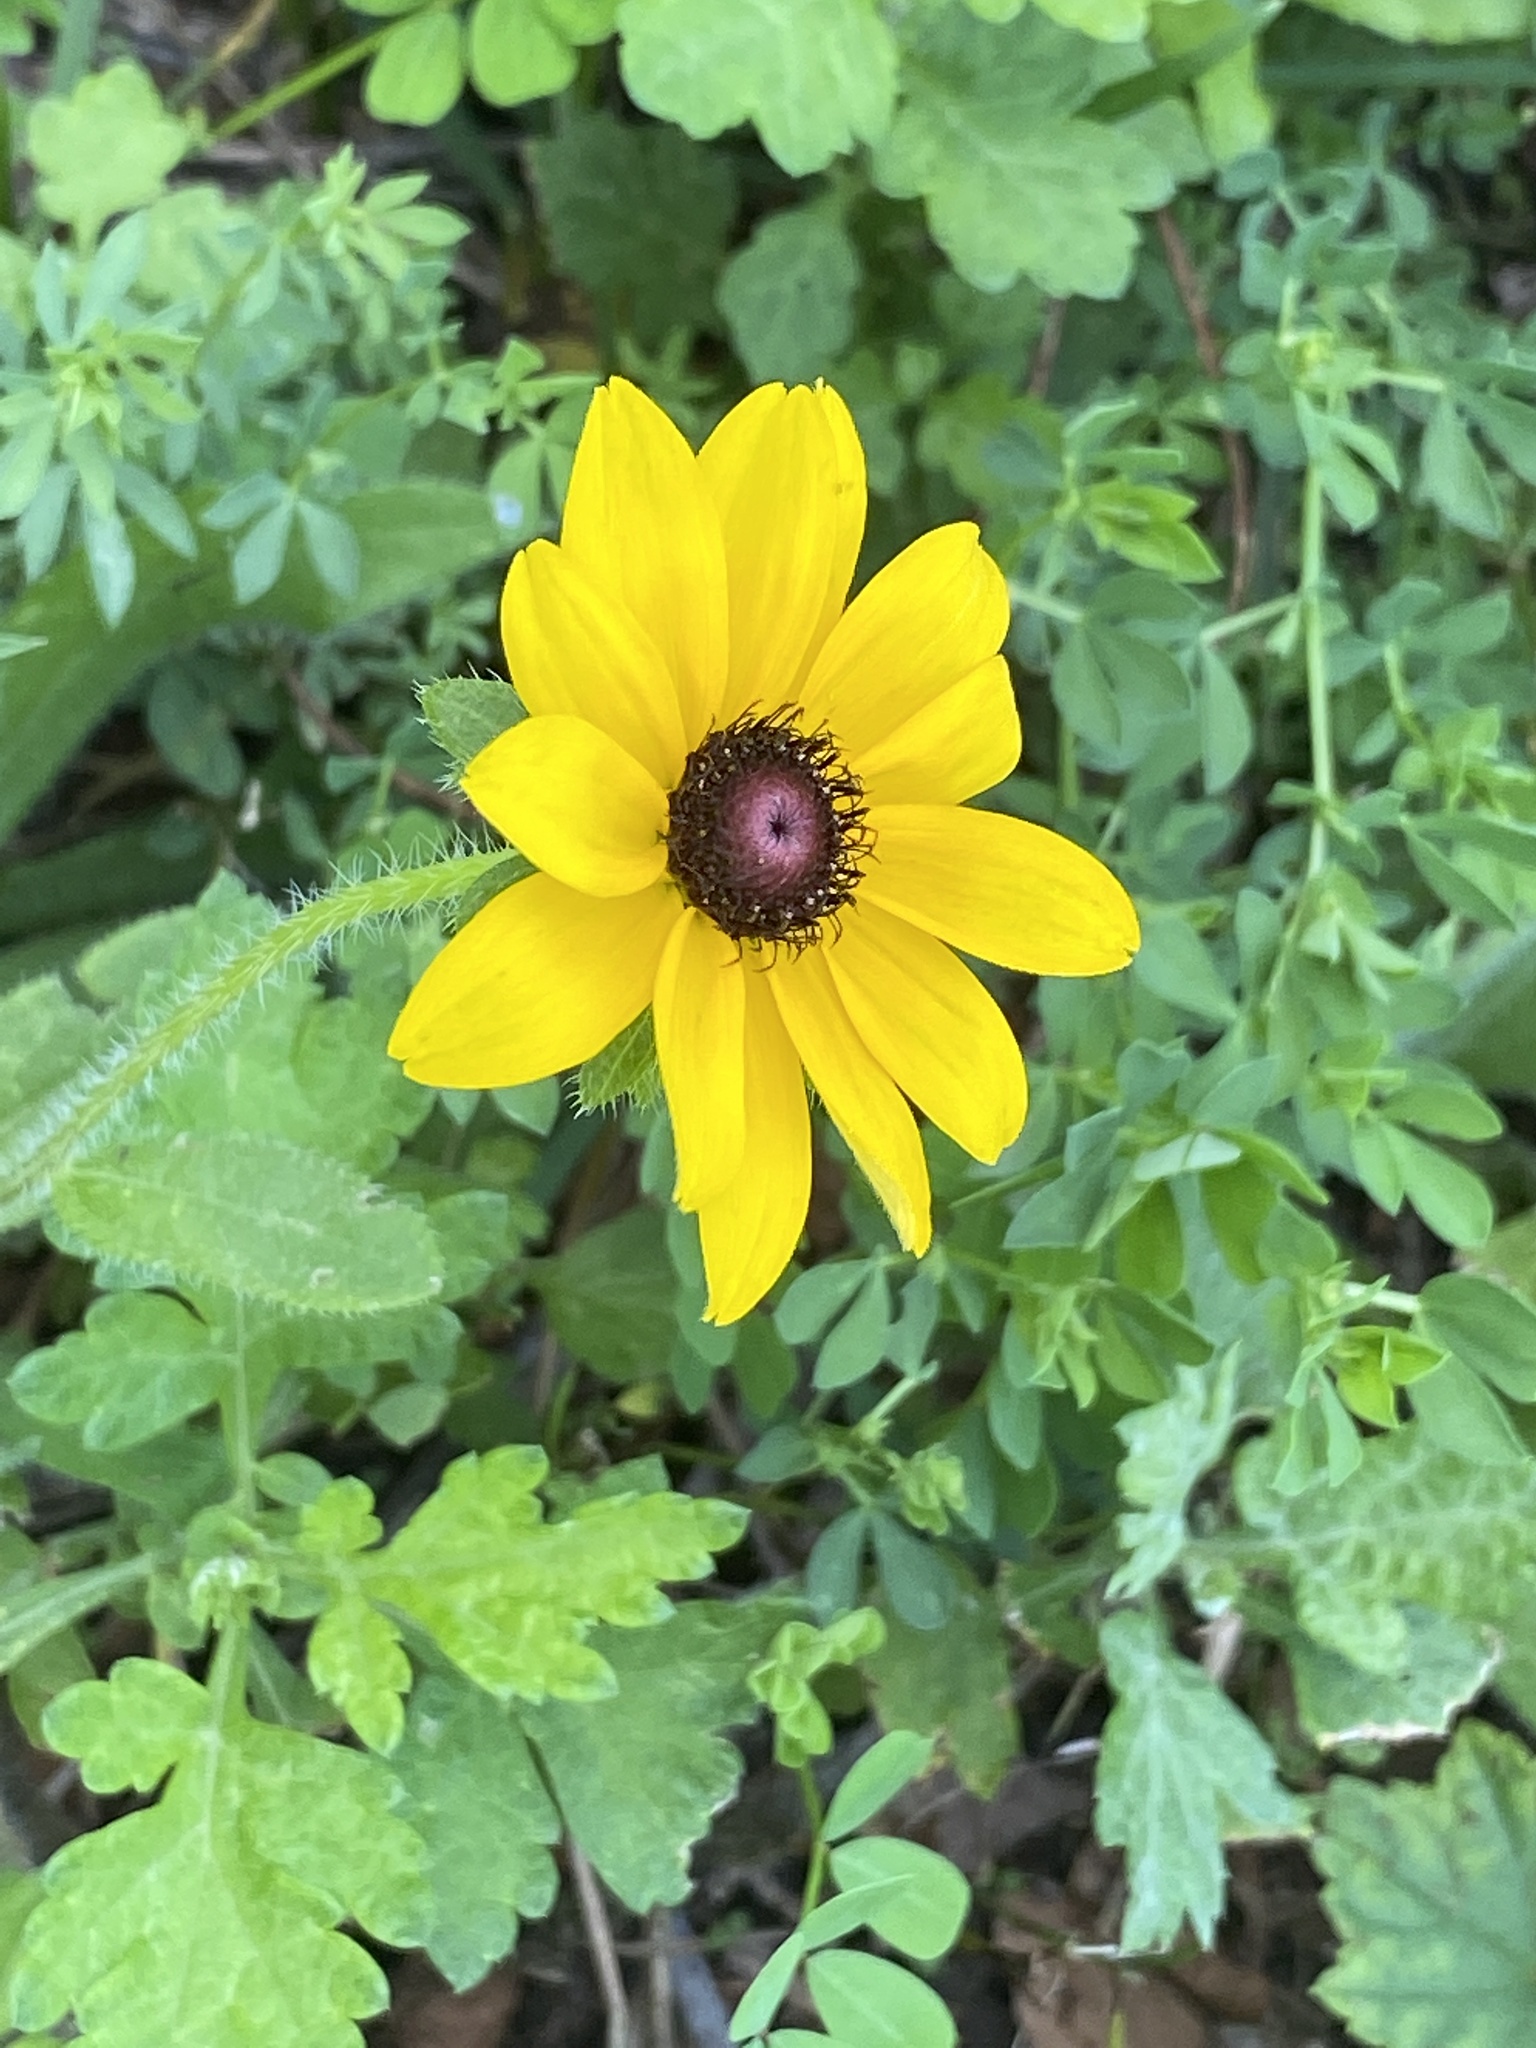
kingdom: Plantae
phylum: Tracheophyta
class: Magnoliopsida
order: Asterales
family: Asteraceae
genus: Rudbeckia
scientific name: Rudbeckia hirta
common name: Black-eyed-susan
